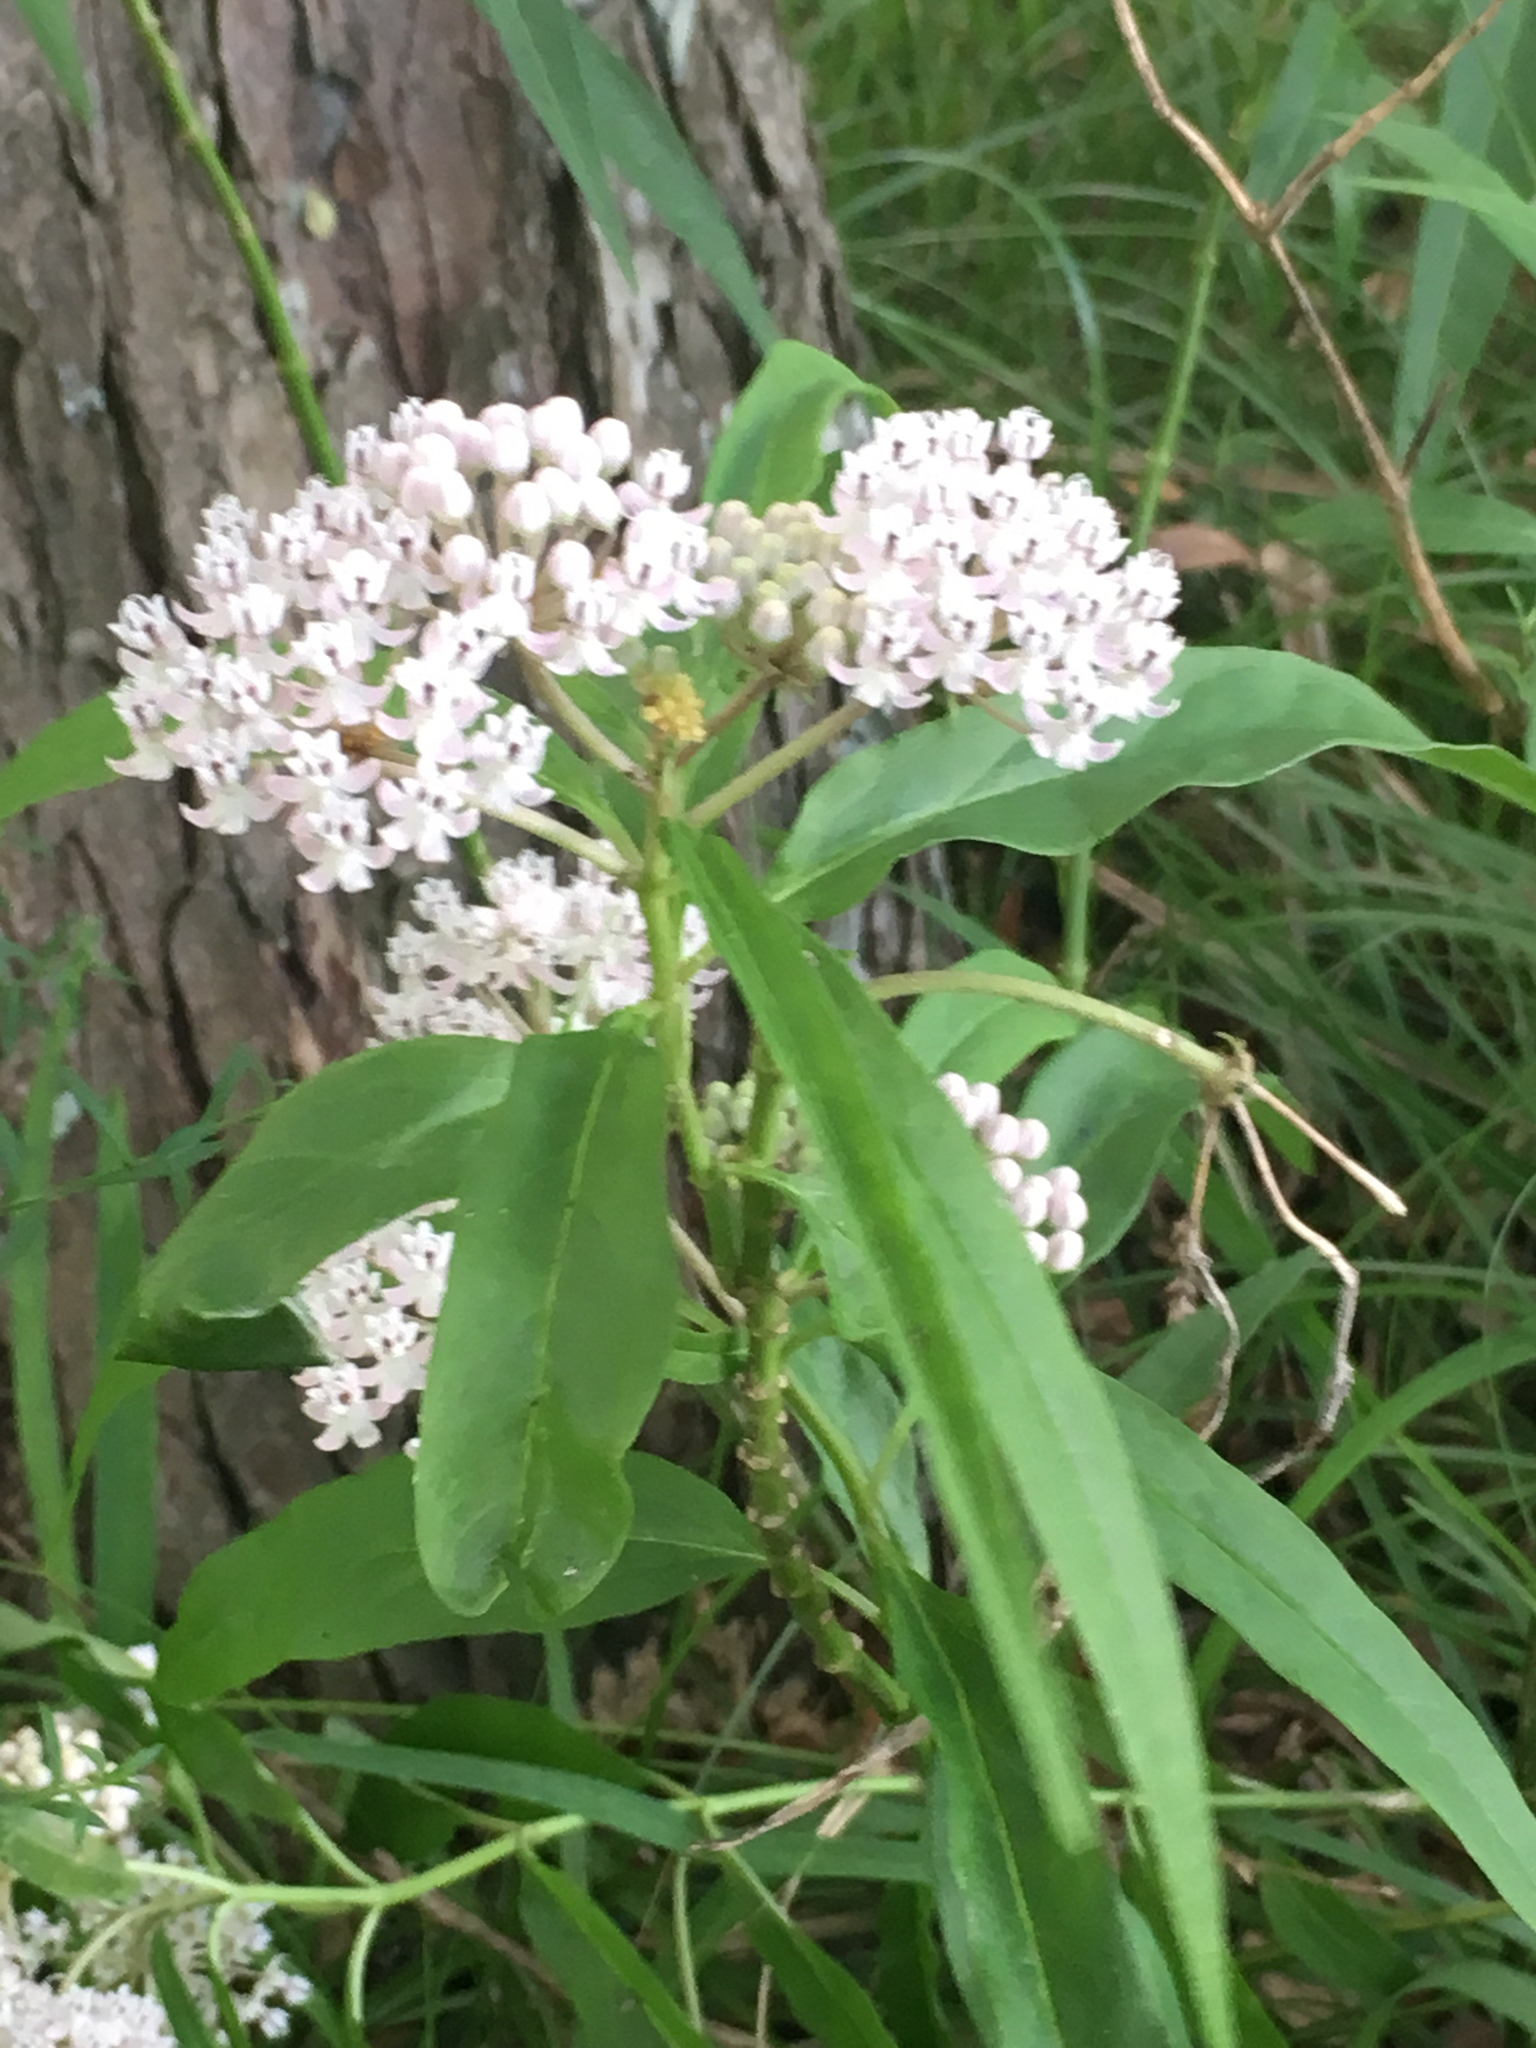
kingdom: Plantae
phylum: Tracheophyta
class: Magnoliopsida
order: Gentianales
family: Apocynaceae
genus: Asclepias
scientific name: Asclepias perennis
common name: Smooth-seed milkweed
